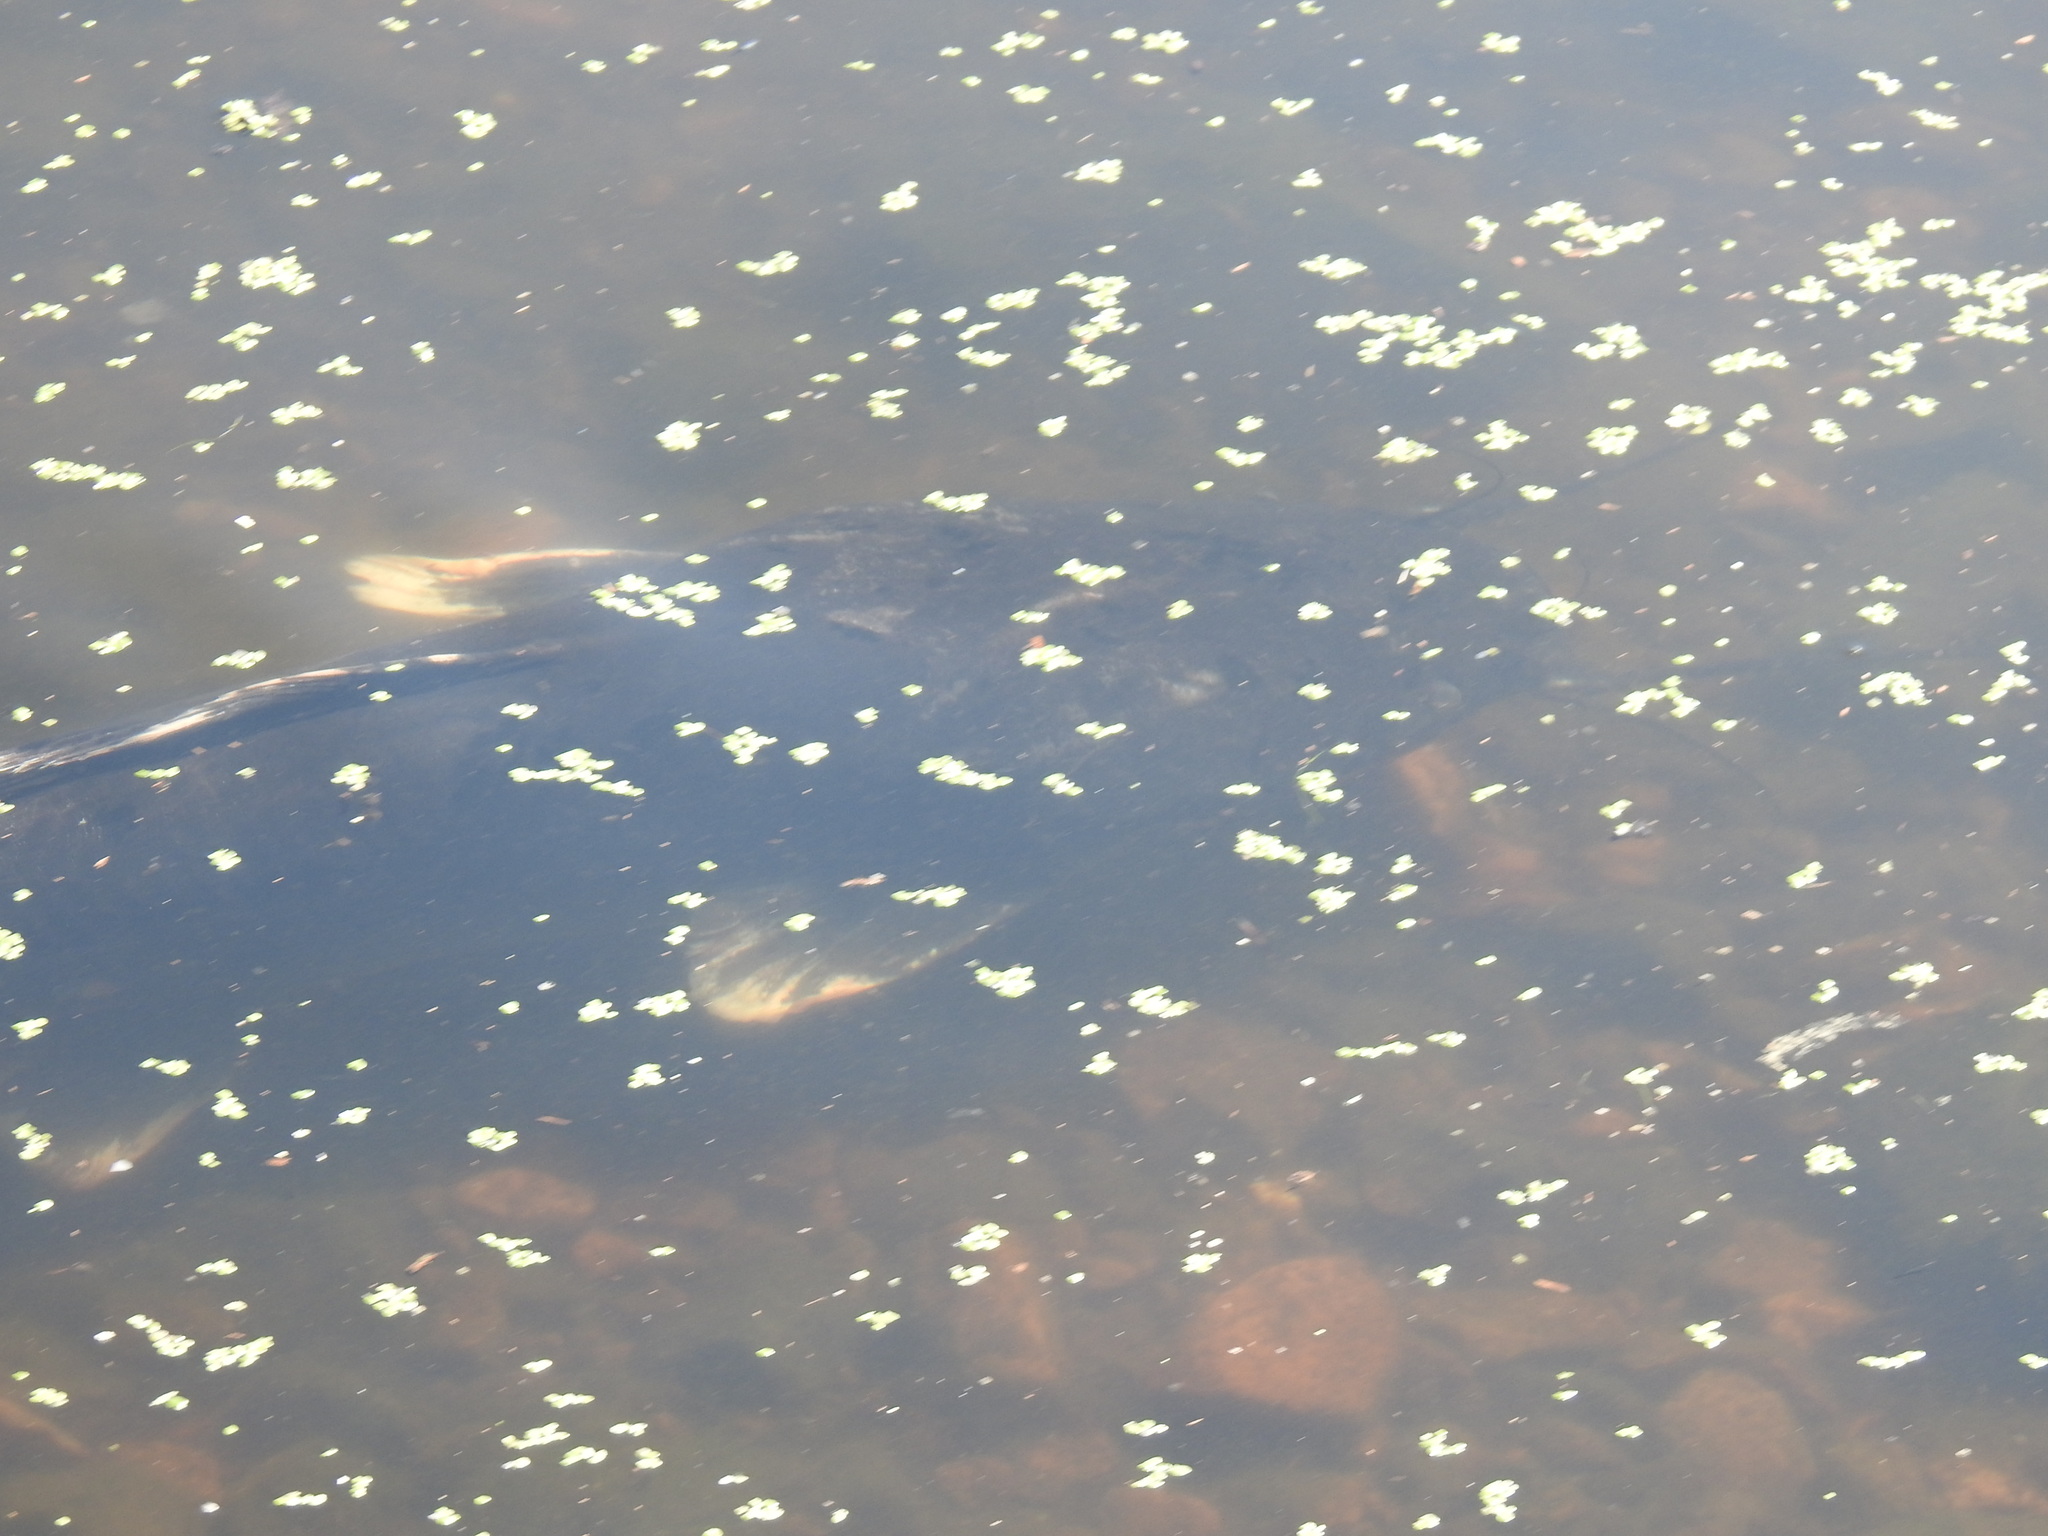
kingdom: Animalia
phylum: Chordata
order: Siluriformes
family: Clariidae
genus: Clarias
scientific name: Clarias gariepinus
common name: African catfish
